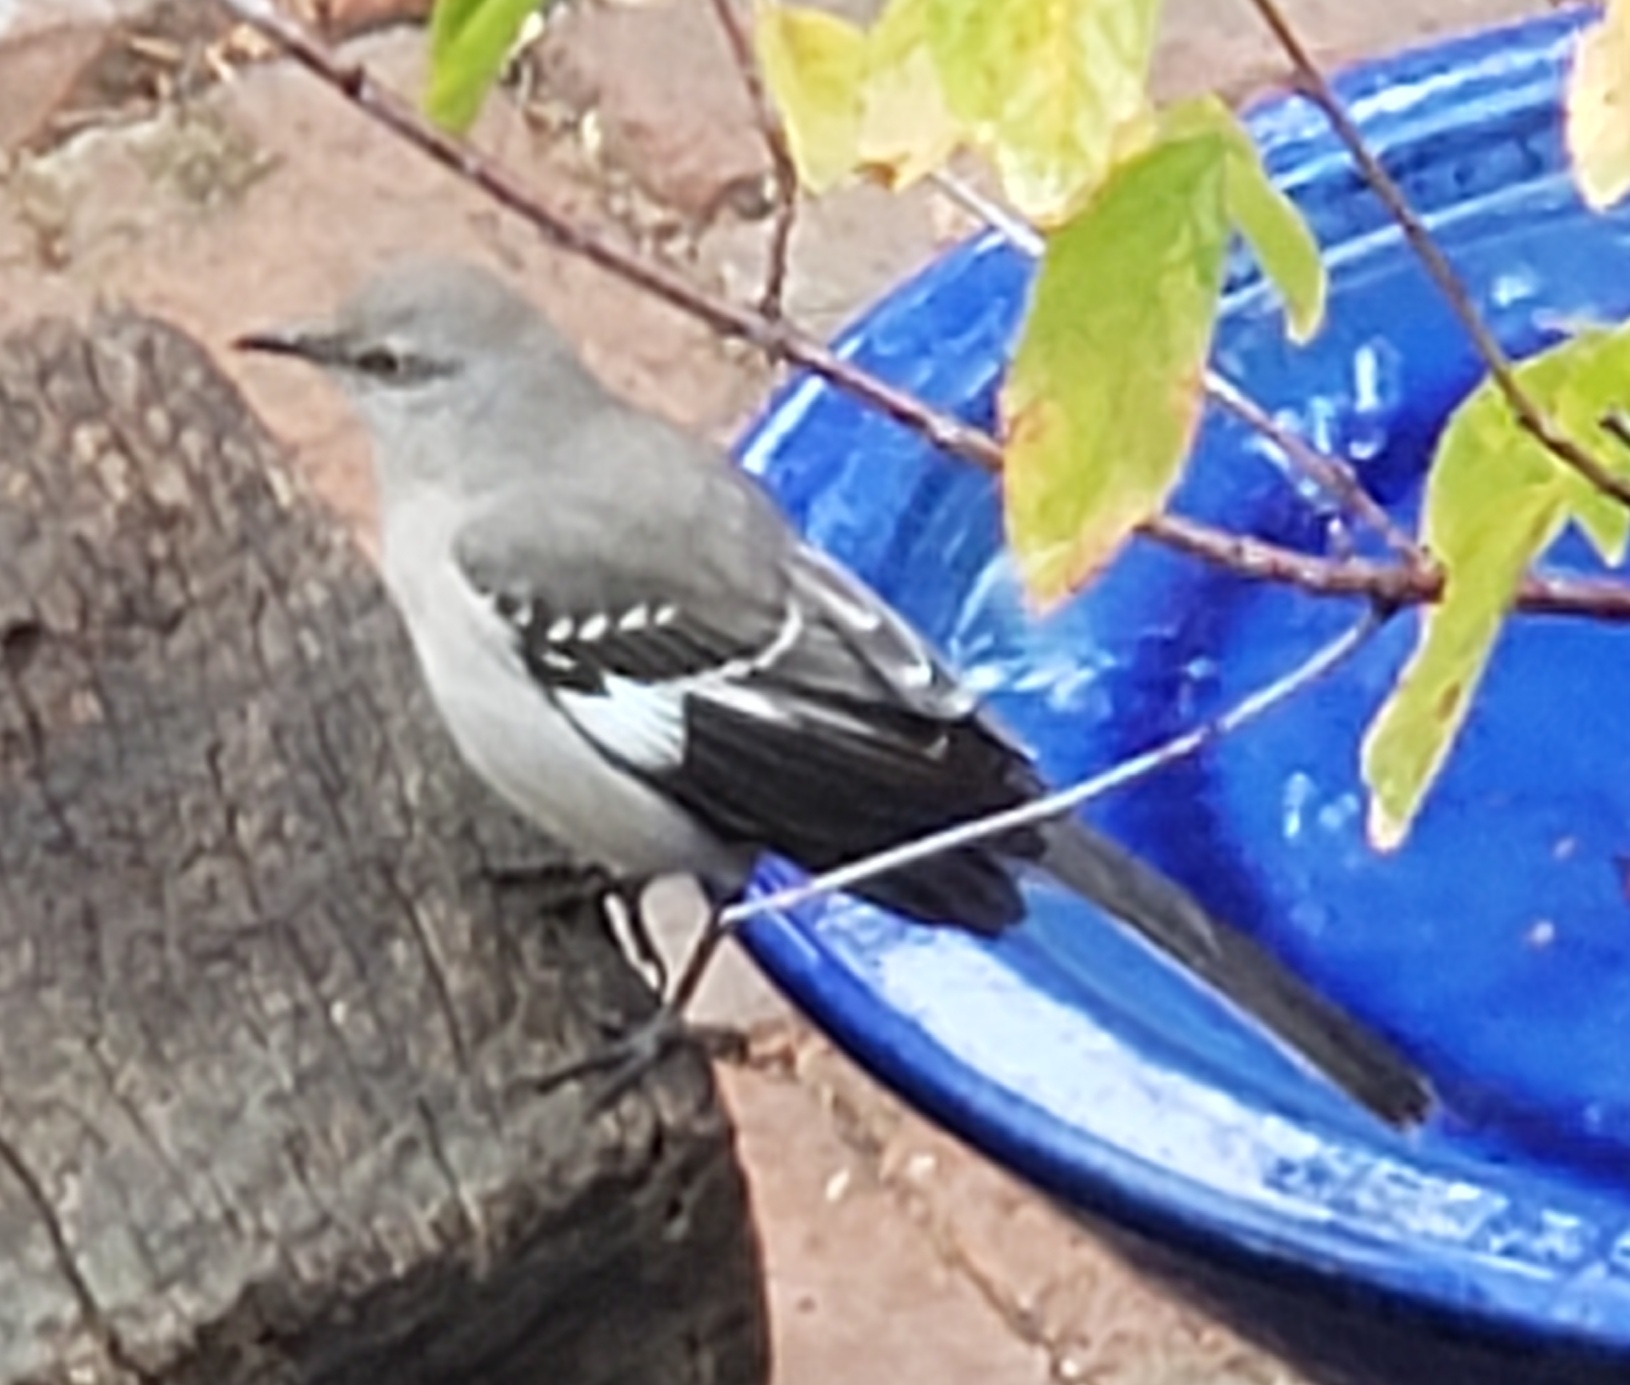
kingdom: Animalia
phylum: Chordata
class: Aves
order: Passeriformes
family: Mimidae
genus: Mimus
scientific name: Mimus polyglottos
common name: Northern mockingbird
